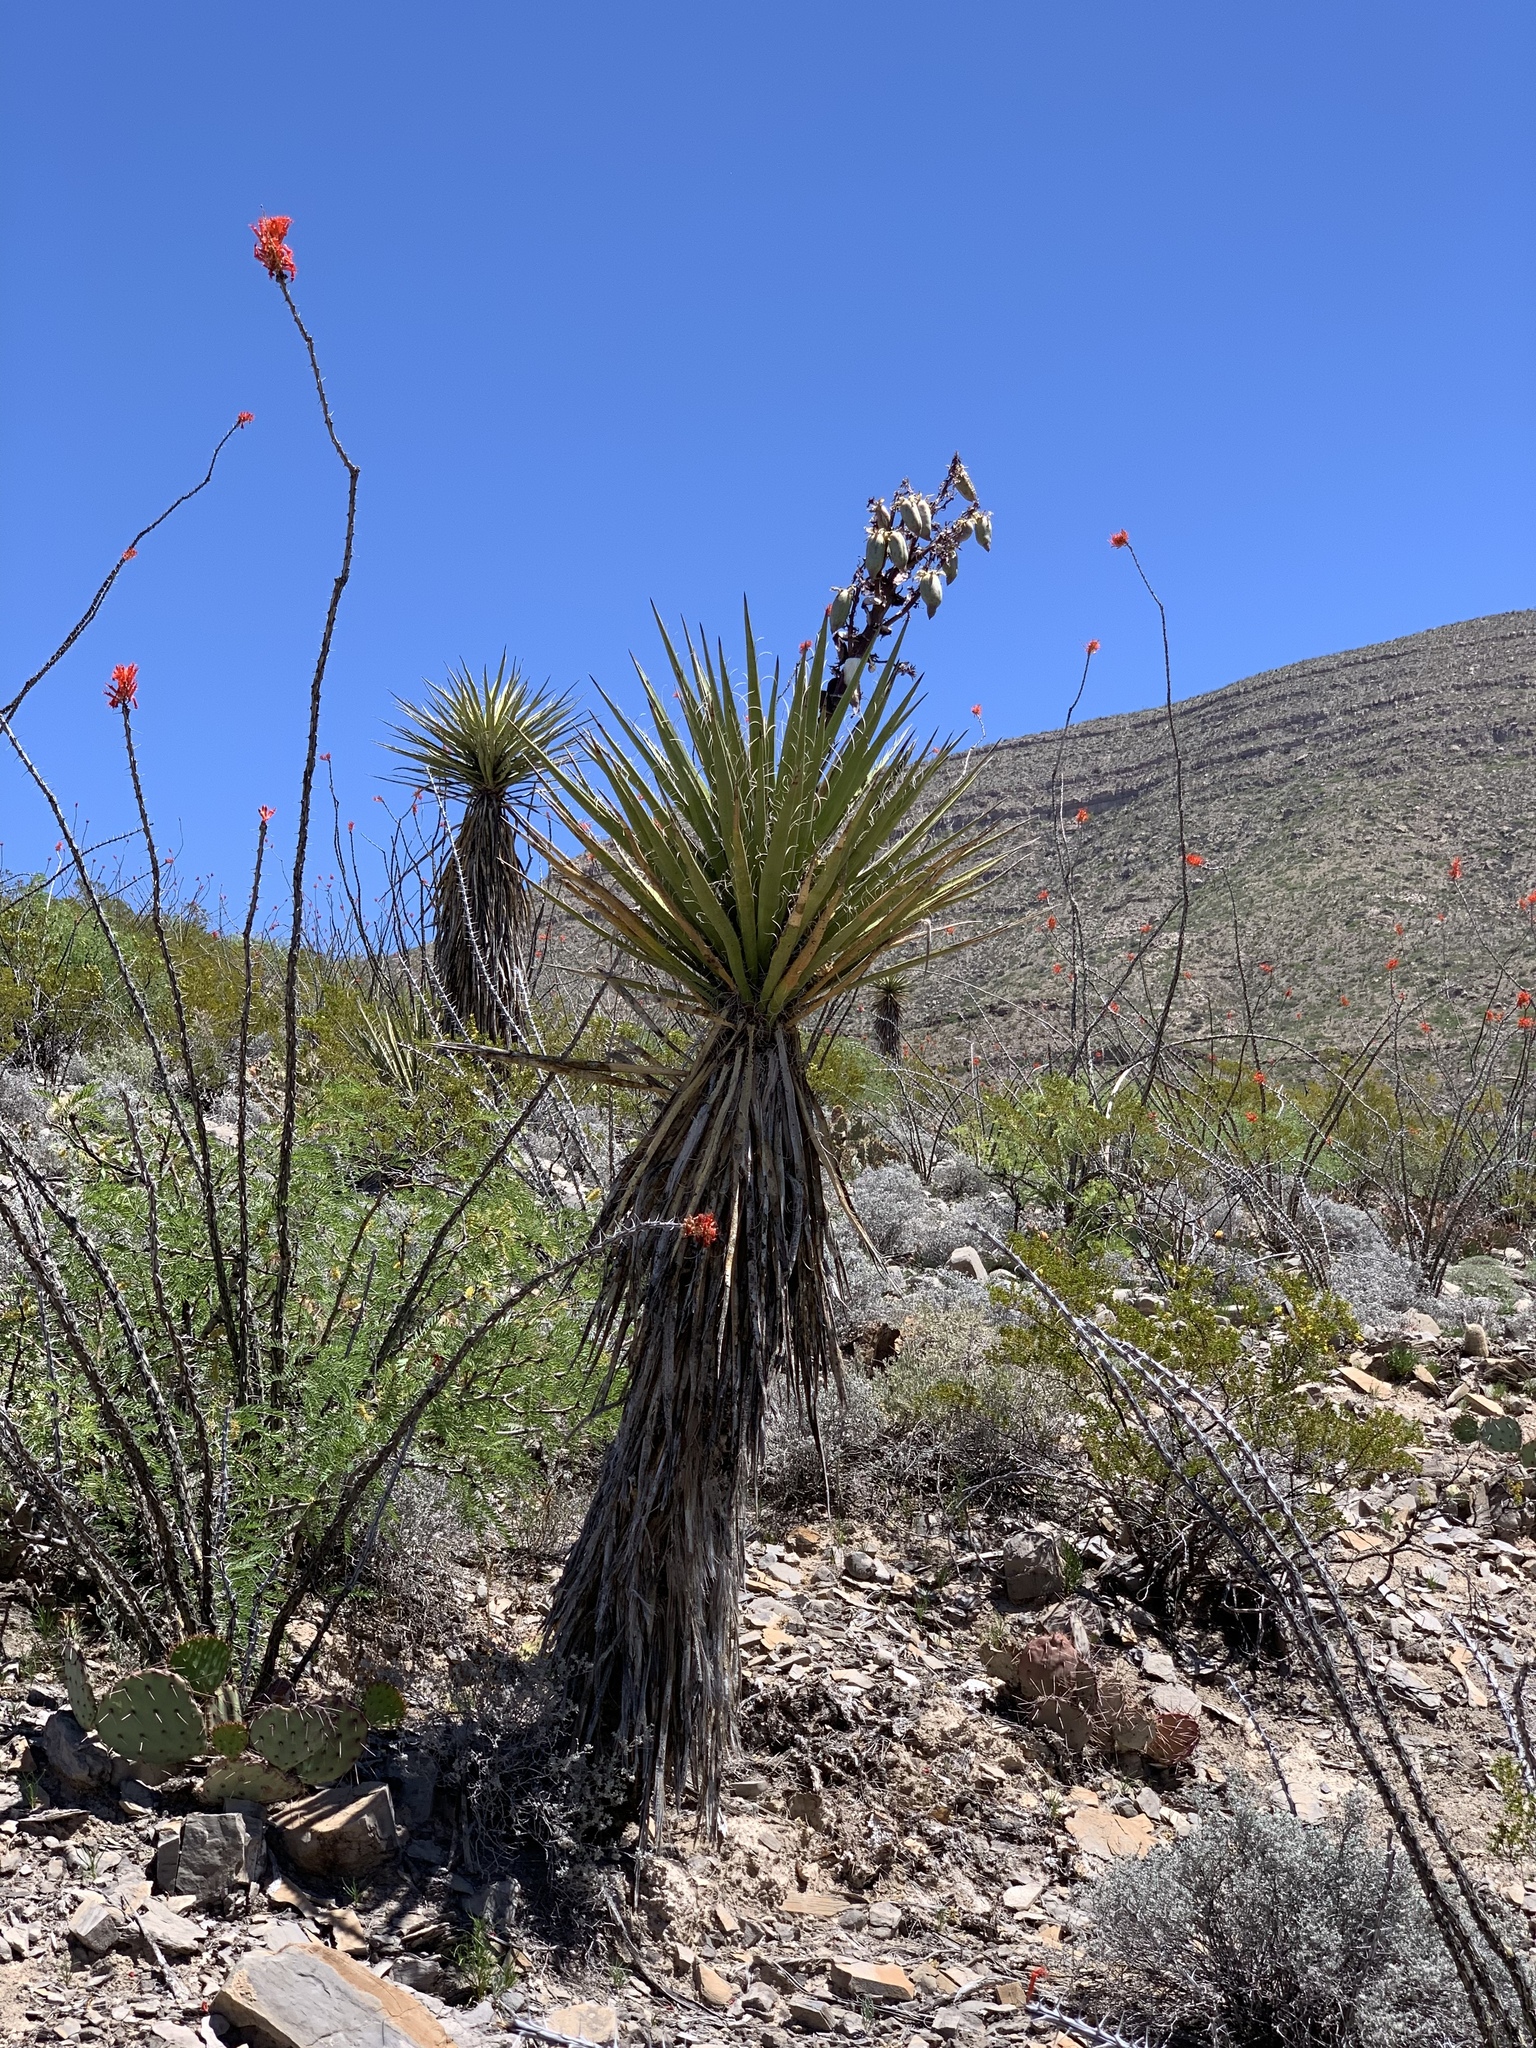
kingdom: Plantae
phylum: Tracheophyta
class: Liliopsida
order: Asparagales
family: Asparagaceae
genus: Yucca
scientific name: Yucca treculiana
